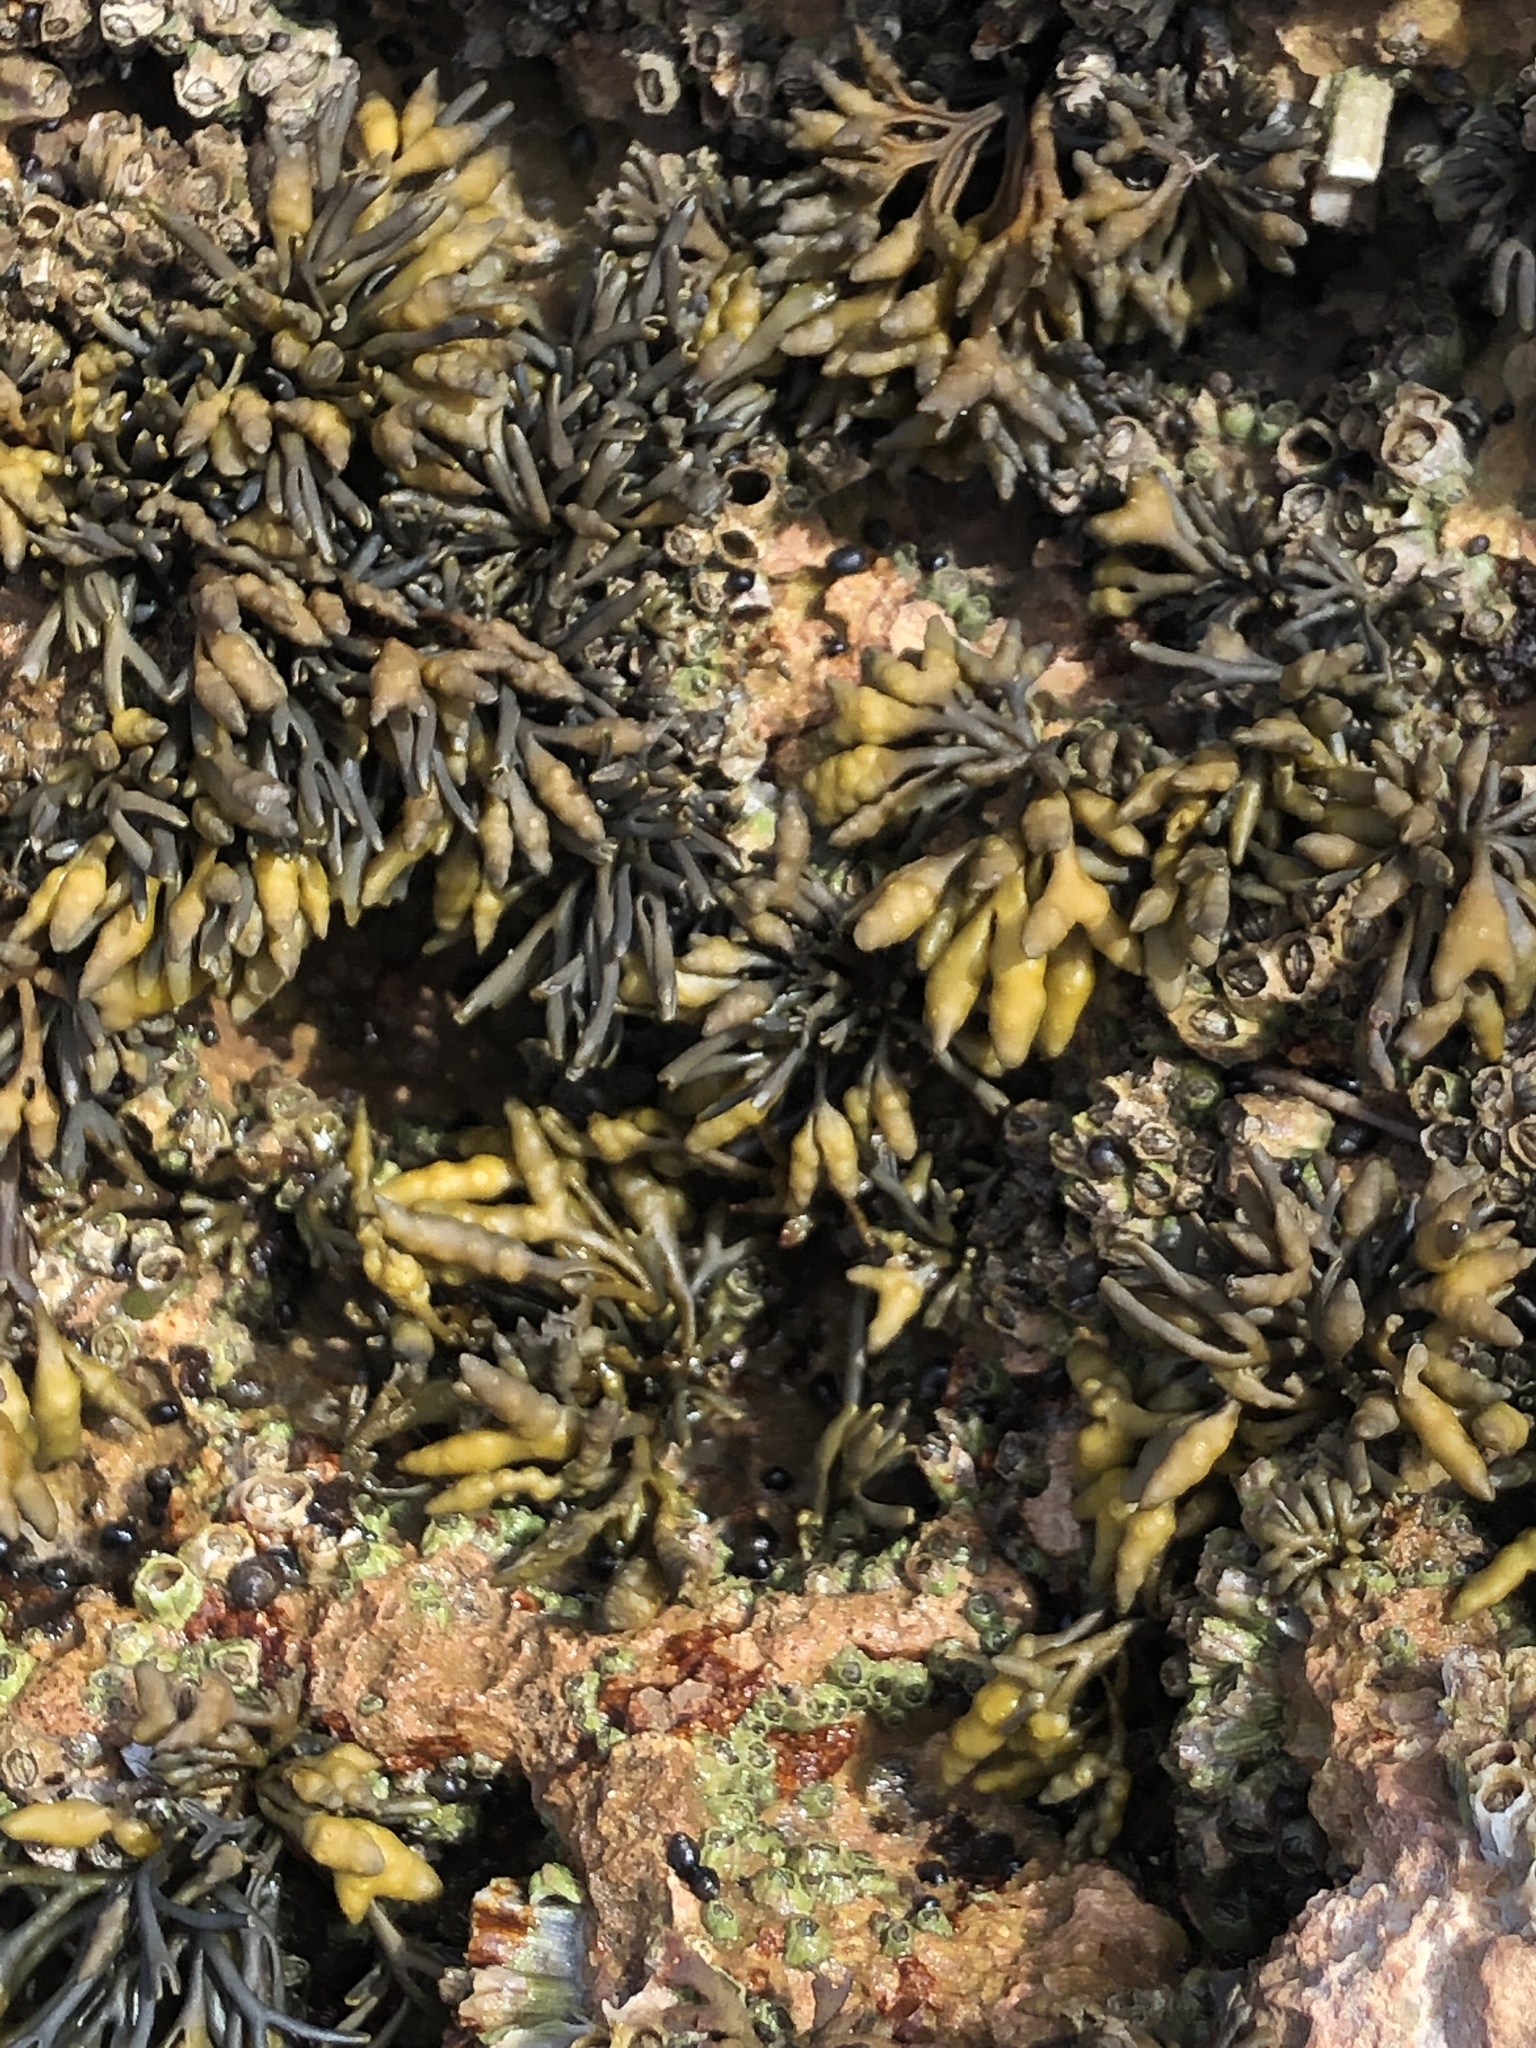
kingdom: Chromista
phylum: Ochrophyta
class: Phaeophyceae
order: Fucales
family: Fucaceae
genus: Pelvetia
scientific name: Pelvetia canaliculata
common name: Channelled wrack
